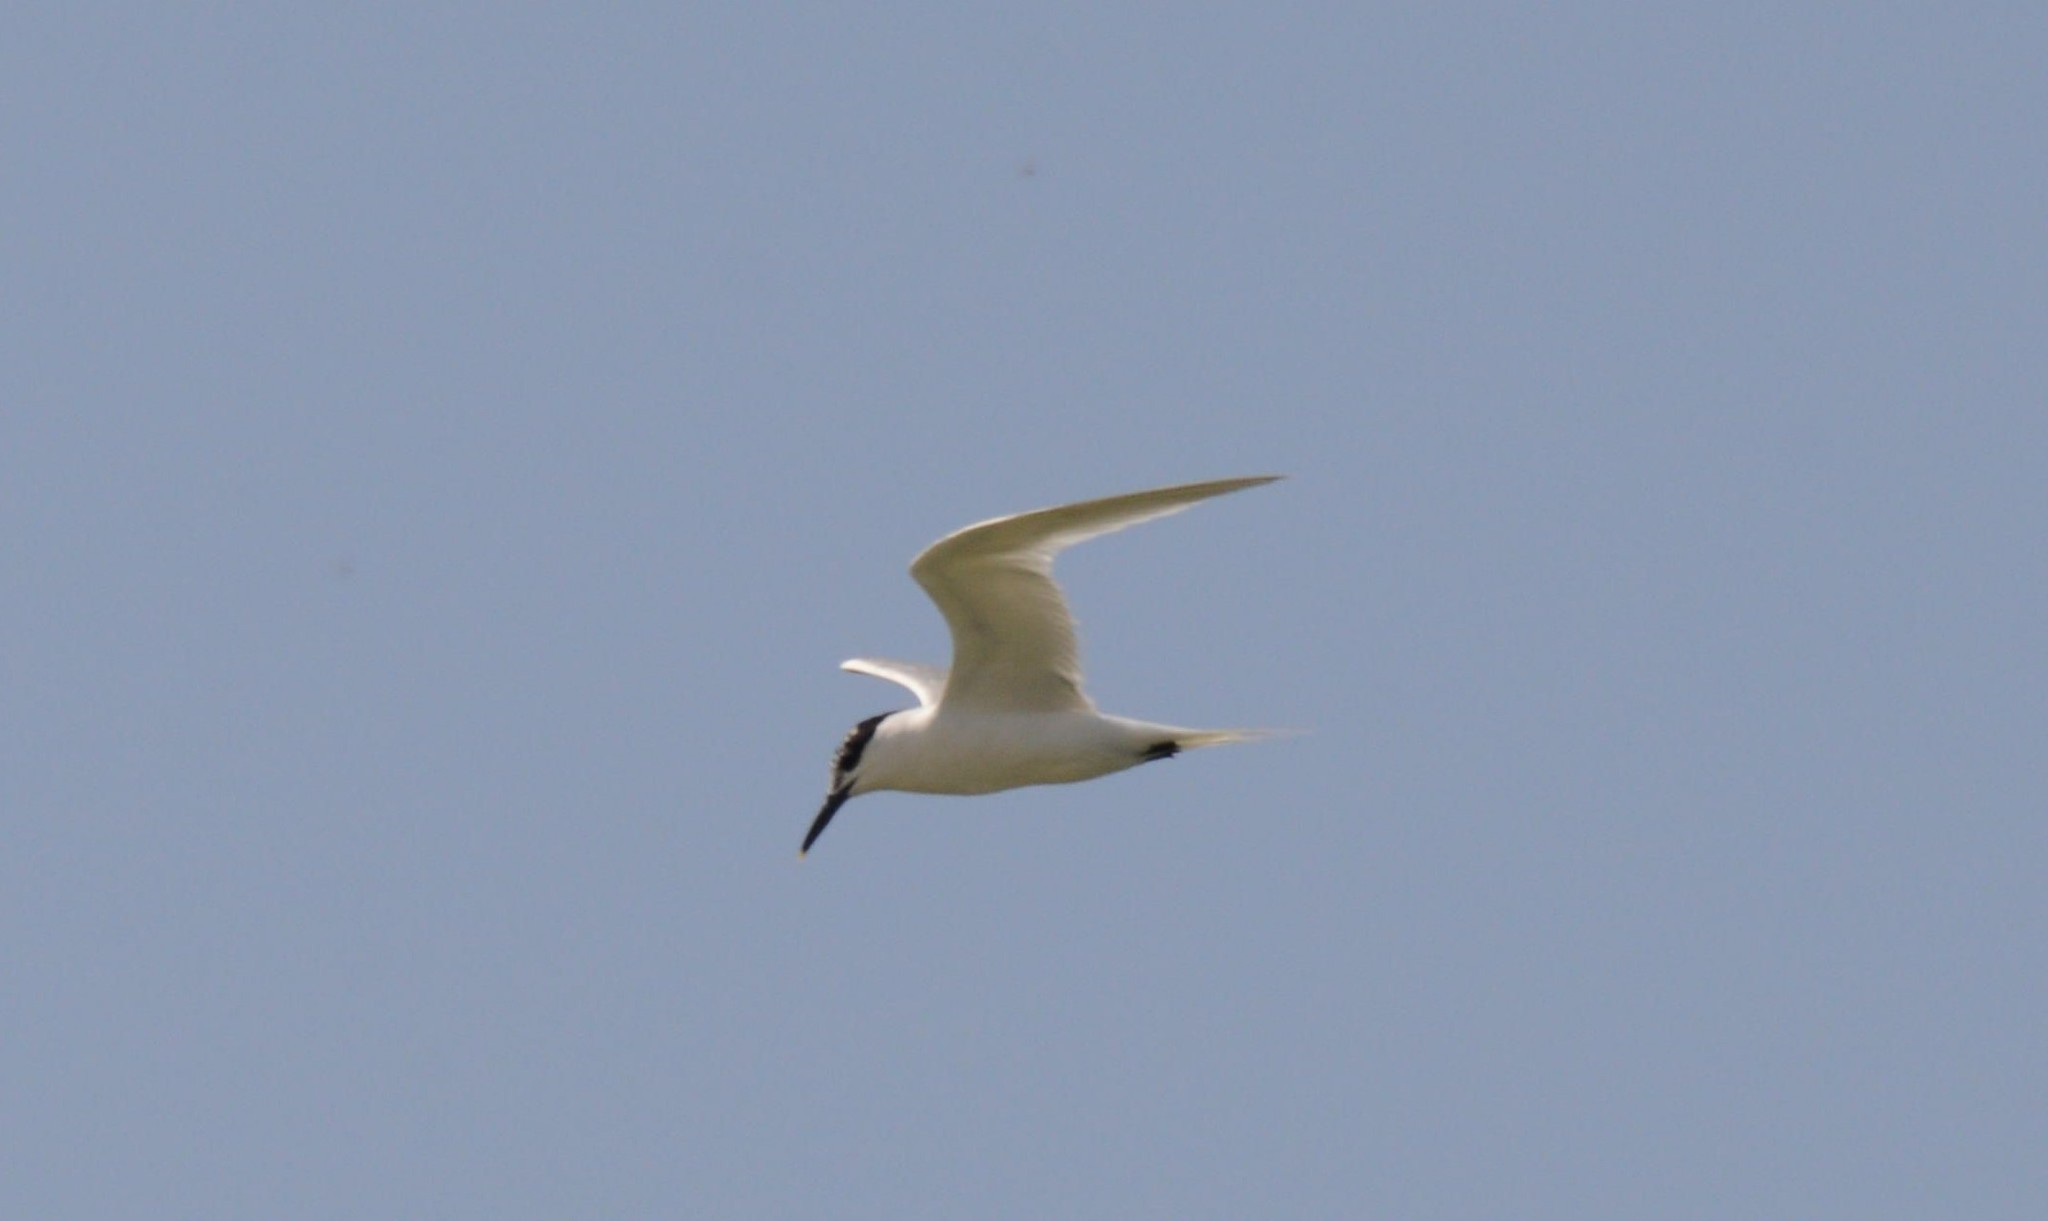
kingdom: Animalia
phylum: Chordata
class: Aves
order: Charadriiformes
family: Laridae
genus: Thalasseus
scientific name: Thalasseus sandvicensis
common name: Sandwich tern
